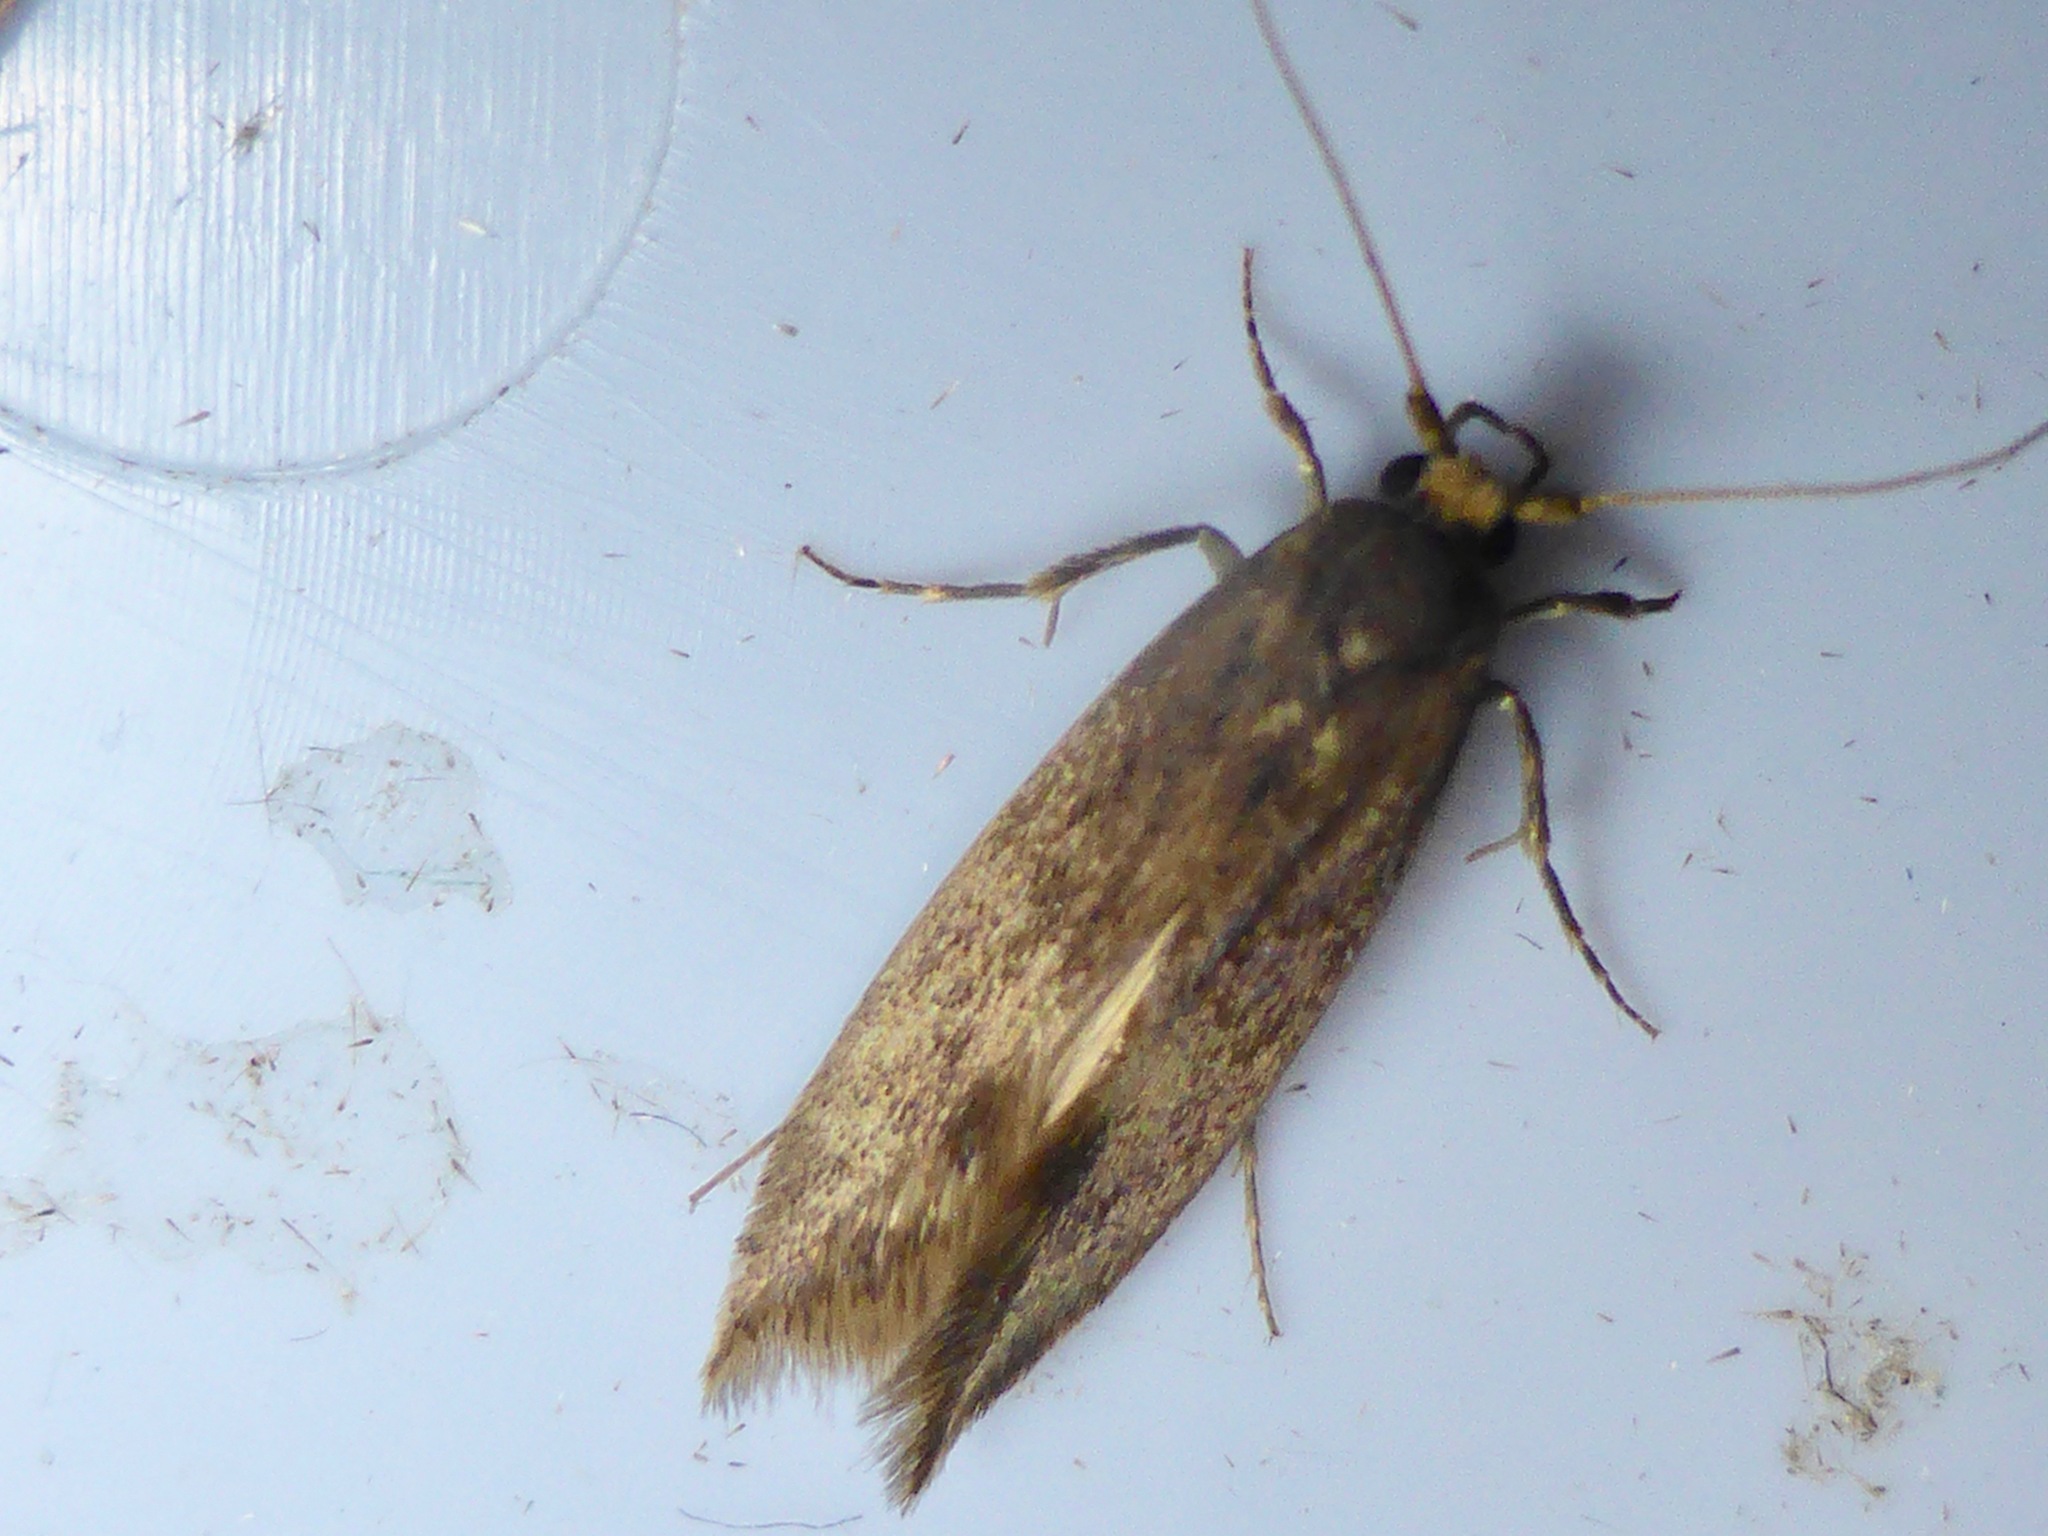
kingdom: Animalia
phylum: Arthropoda
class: Insecta
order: Lepidoptera
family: Tineidae
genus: Opogona
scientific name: Opogona omoscopa
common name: Moth
